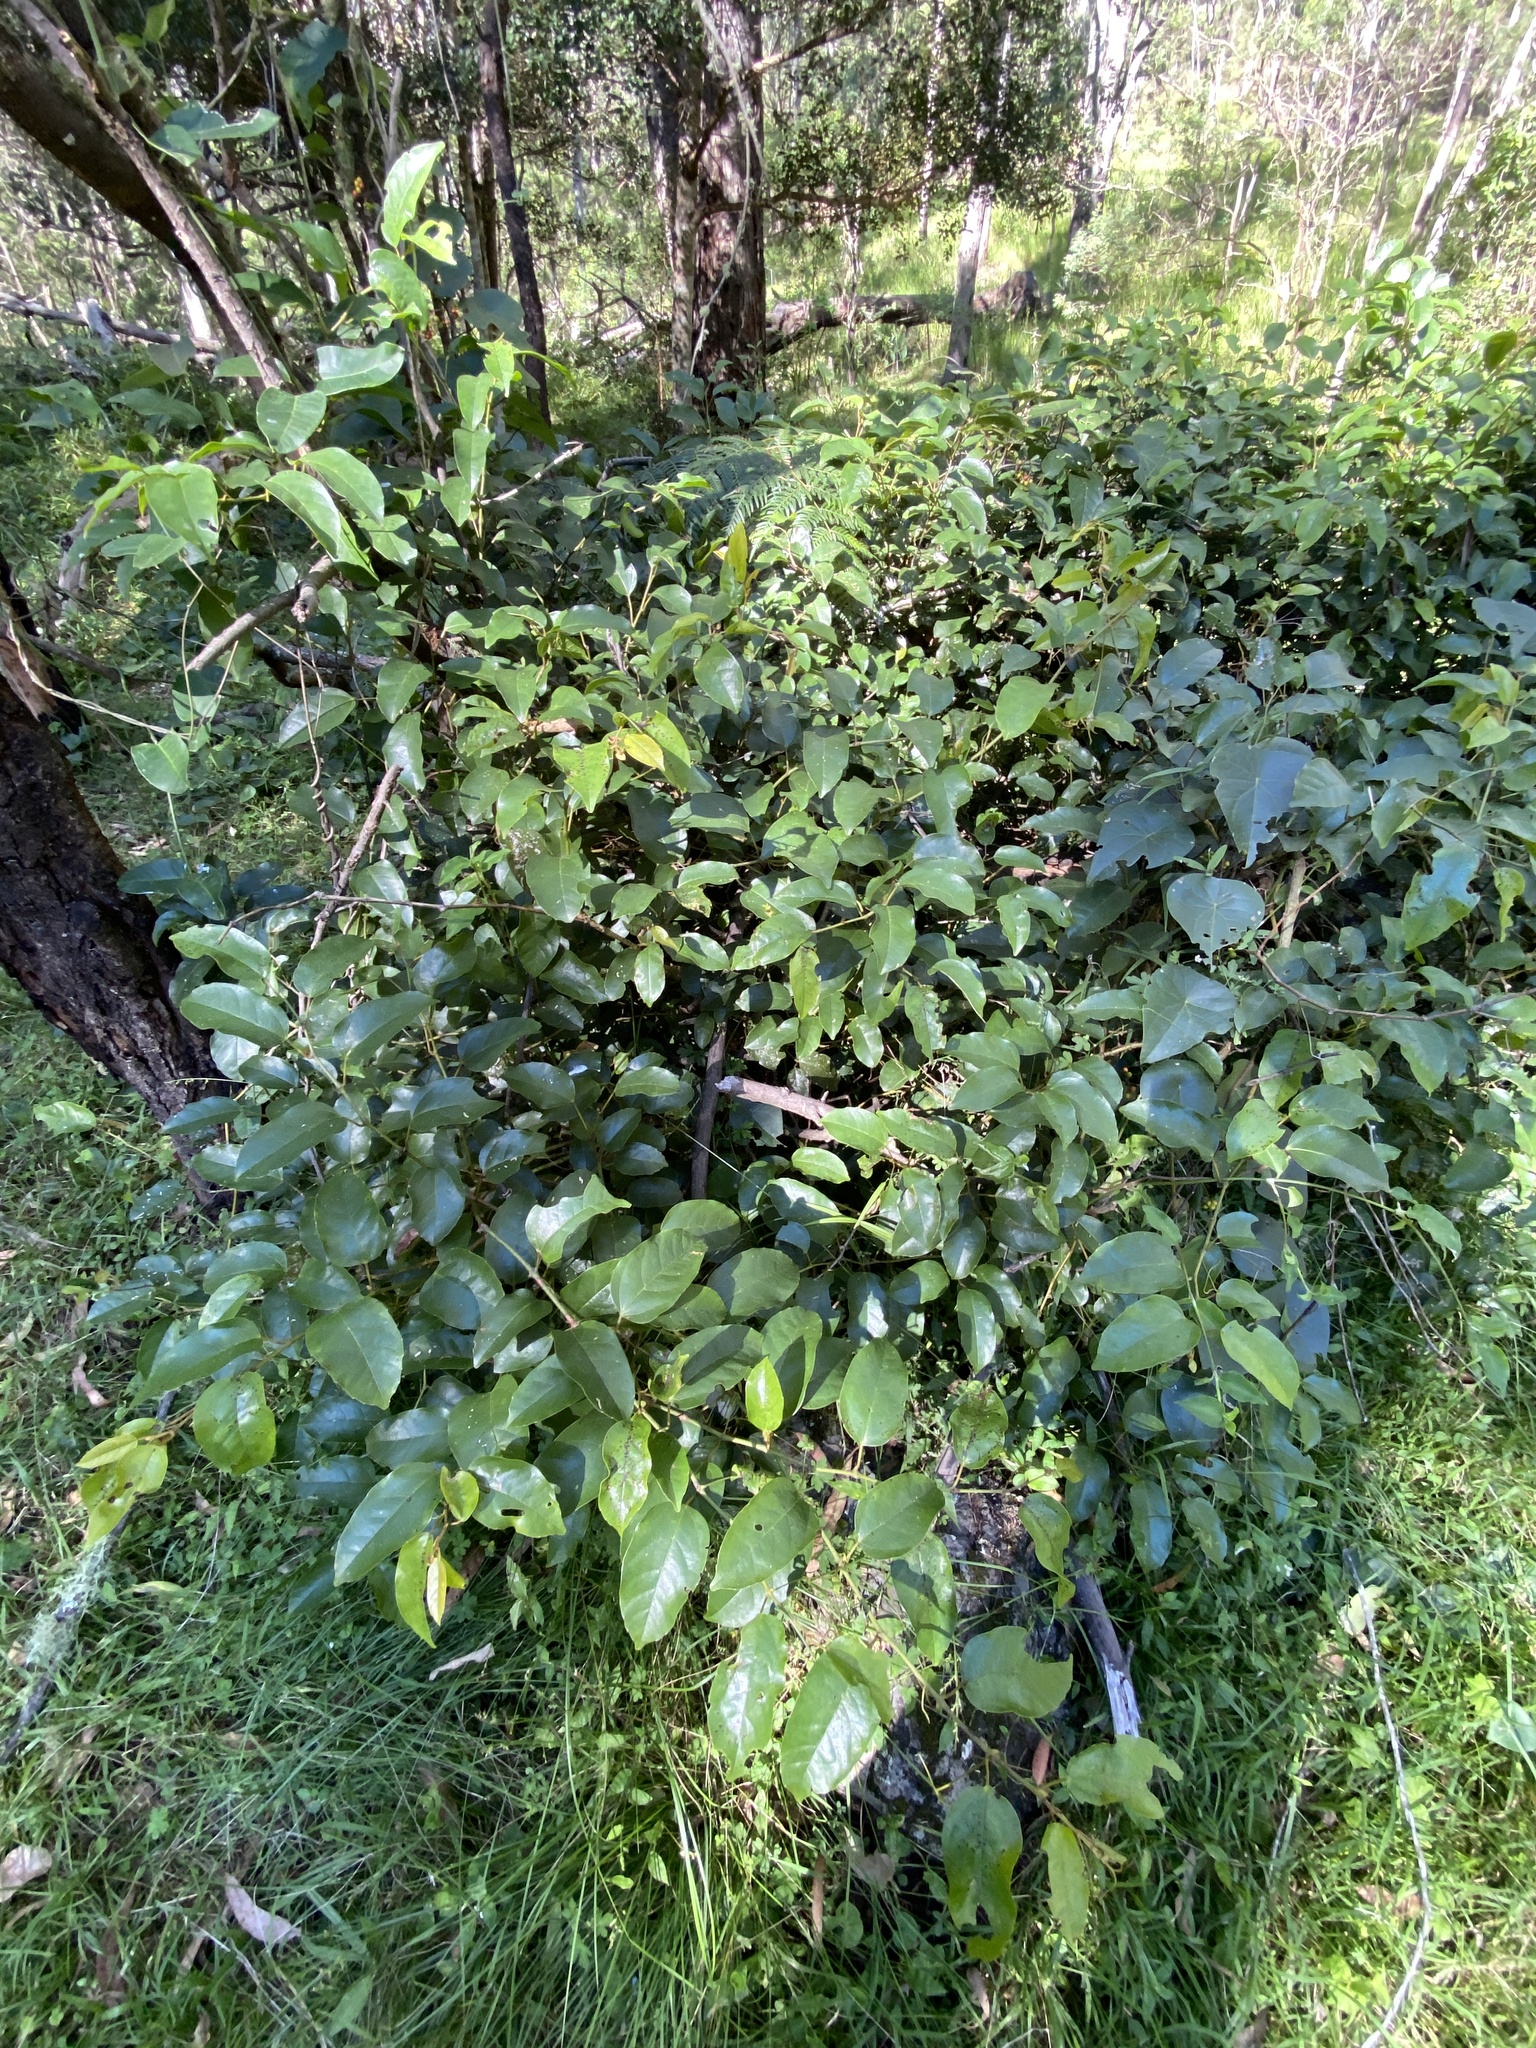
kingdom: Plantae
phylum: Tracheophyta
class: Magnoliopsida
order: Vitales
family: Vitaceae
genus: Cissus
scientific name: Cissus antarctica
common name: Kangaroo vine
